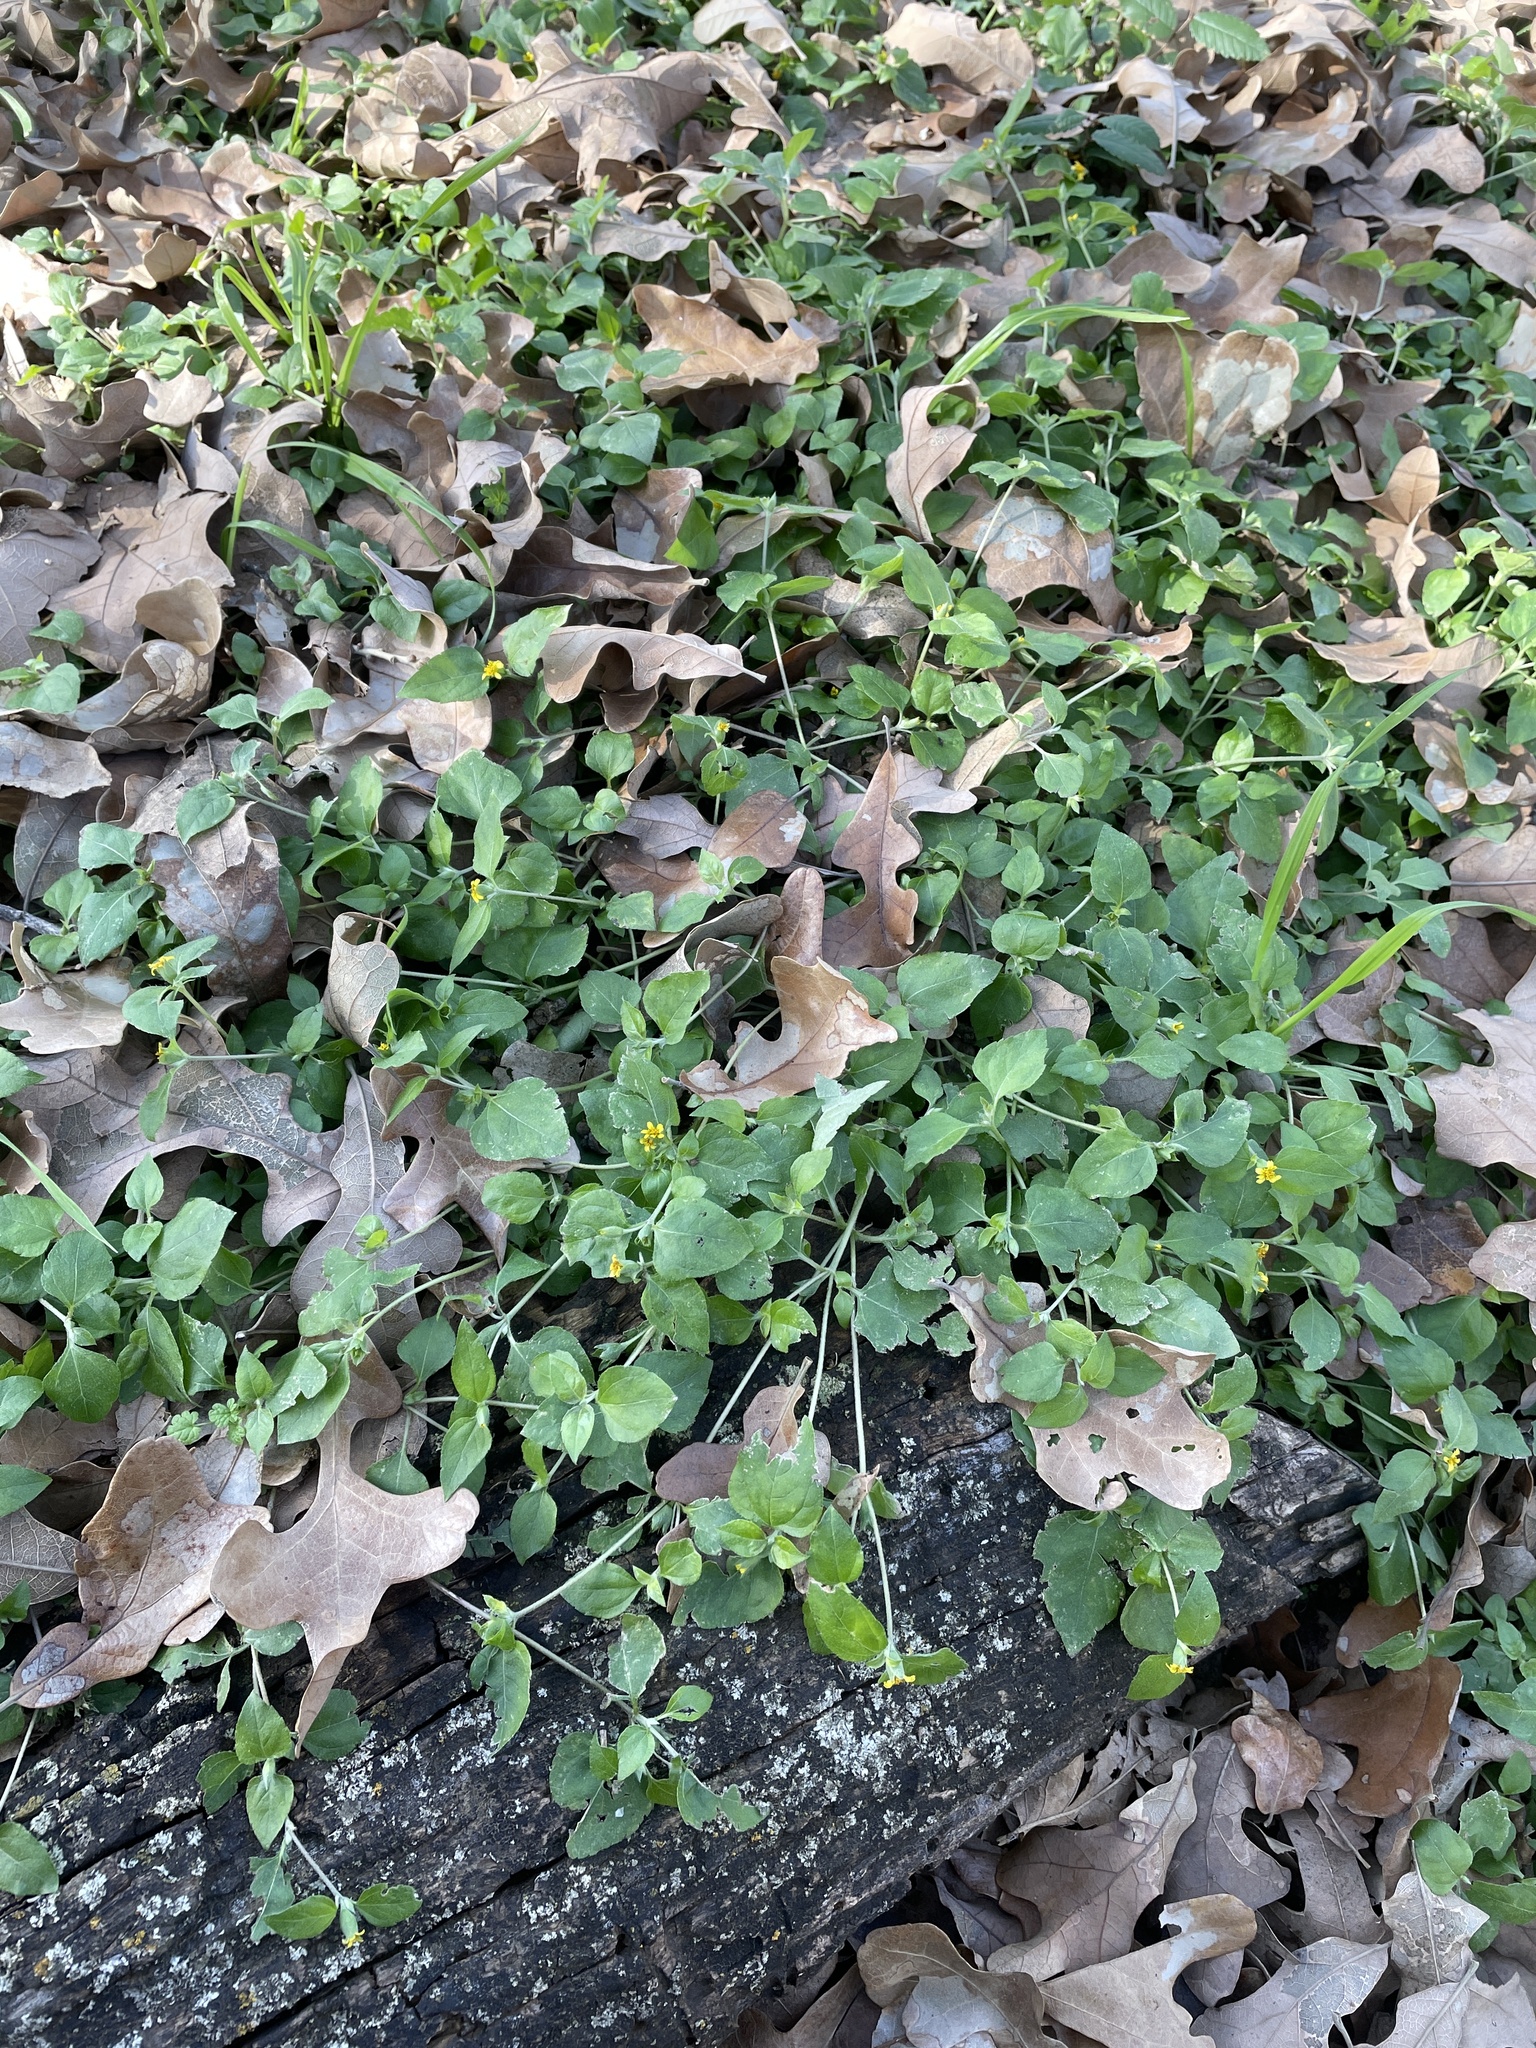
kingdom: Plantae
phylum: Tracheophyta
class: Magnoliopsida
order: Asterales
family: Asteraceae
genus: Calyptocarpus
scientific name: Calyptocarpus vialis
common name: Straggler daisy
